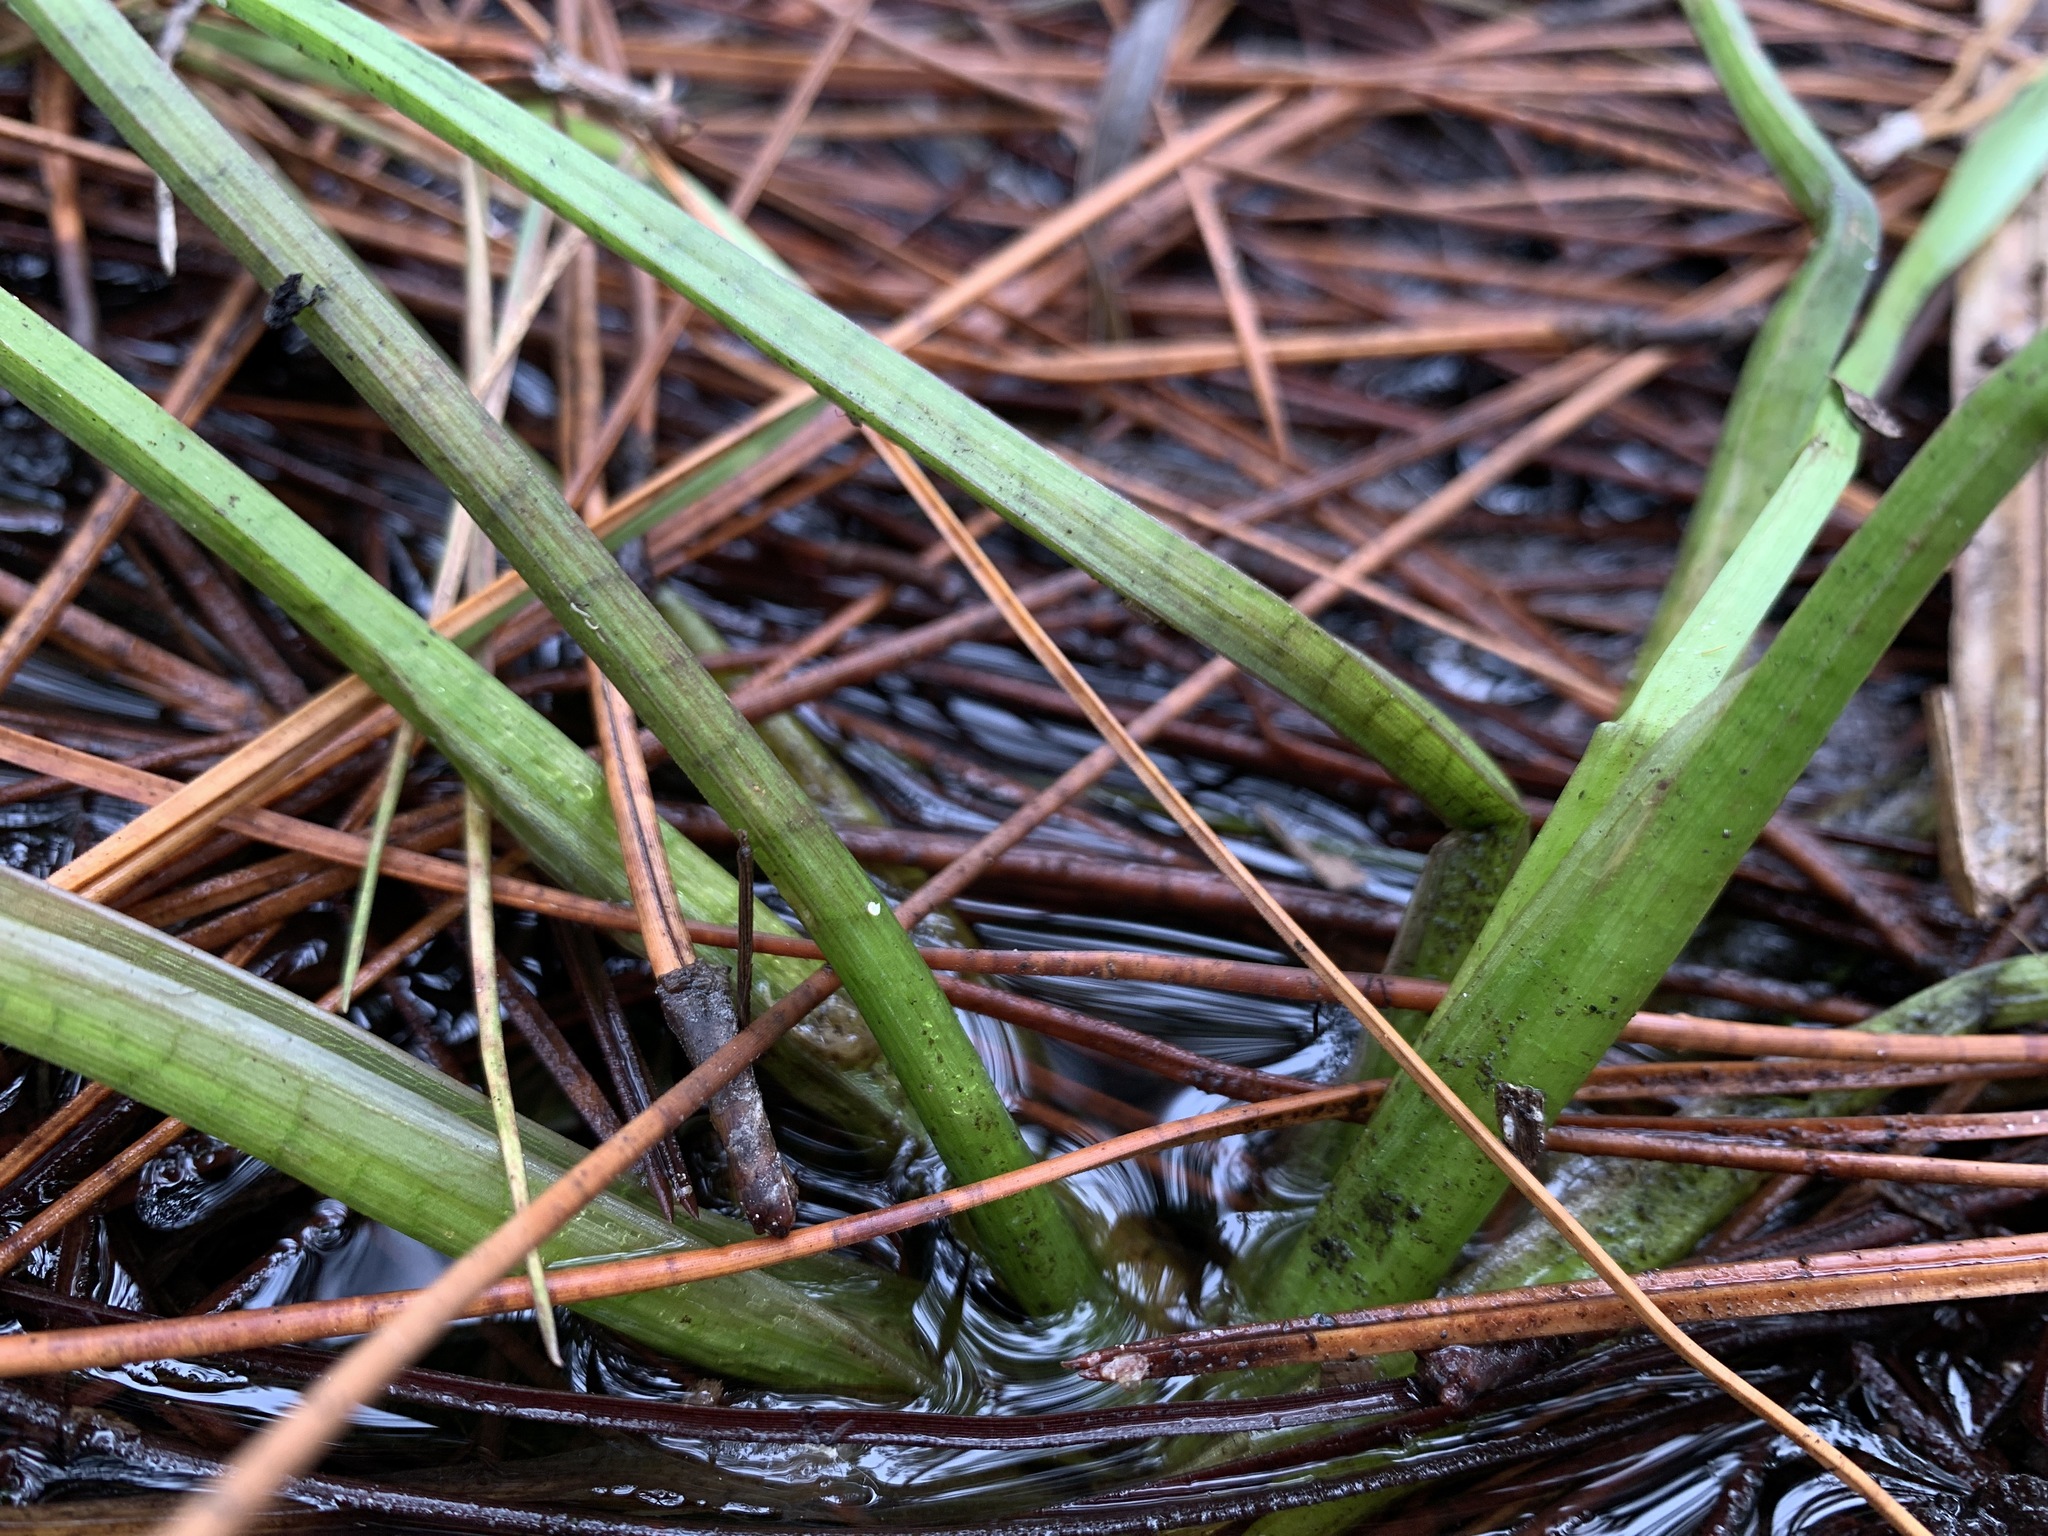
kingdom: Plantae
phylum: Tracheophyta
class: Liliopsida
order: Alismatales
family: Alismataceae
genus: Sagittaria
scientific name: Sagittaria graminea
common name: Grass-leaved arrowhead
